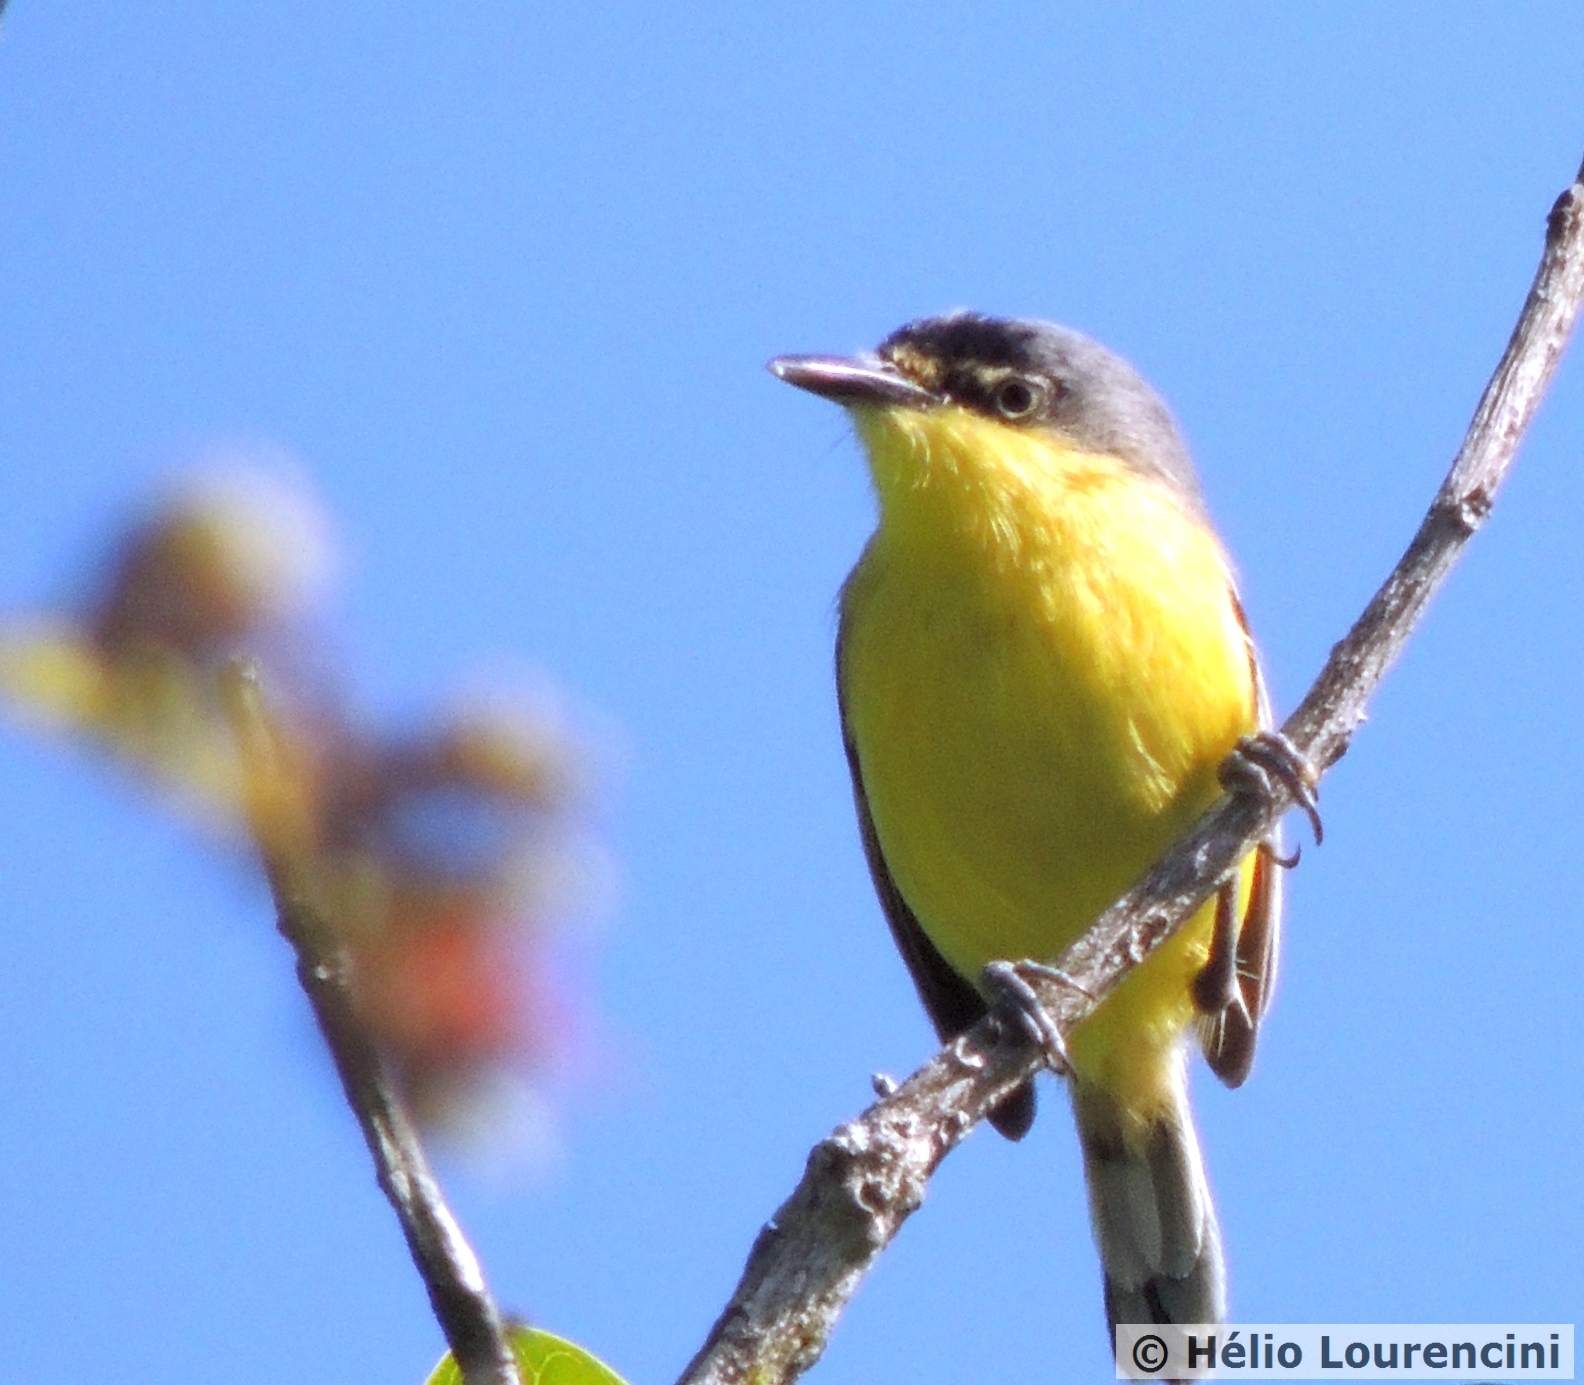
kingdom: Animalia
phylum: Chordata
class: Aves
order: Passeriformes
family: Tyrannidae
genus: Todirostrum
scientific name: Todirostrum cinereum
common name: Common tody-flycatcher
